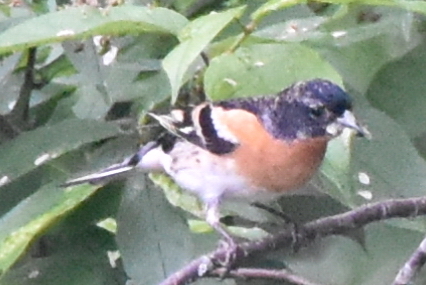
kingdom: Animalia
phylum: Chordata
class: Aves
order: Passeriformes
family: Fringillidae
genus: Fringilla
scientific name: Fringilla montifringilla
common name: Brambling
